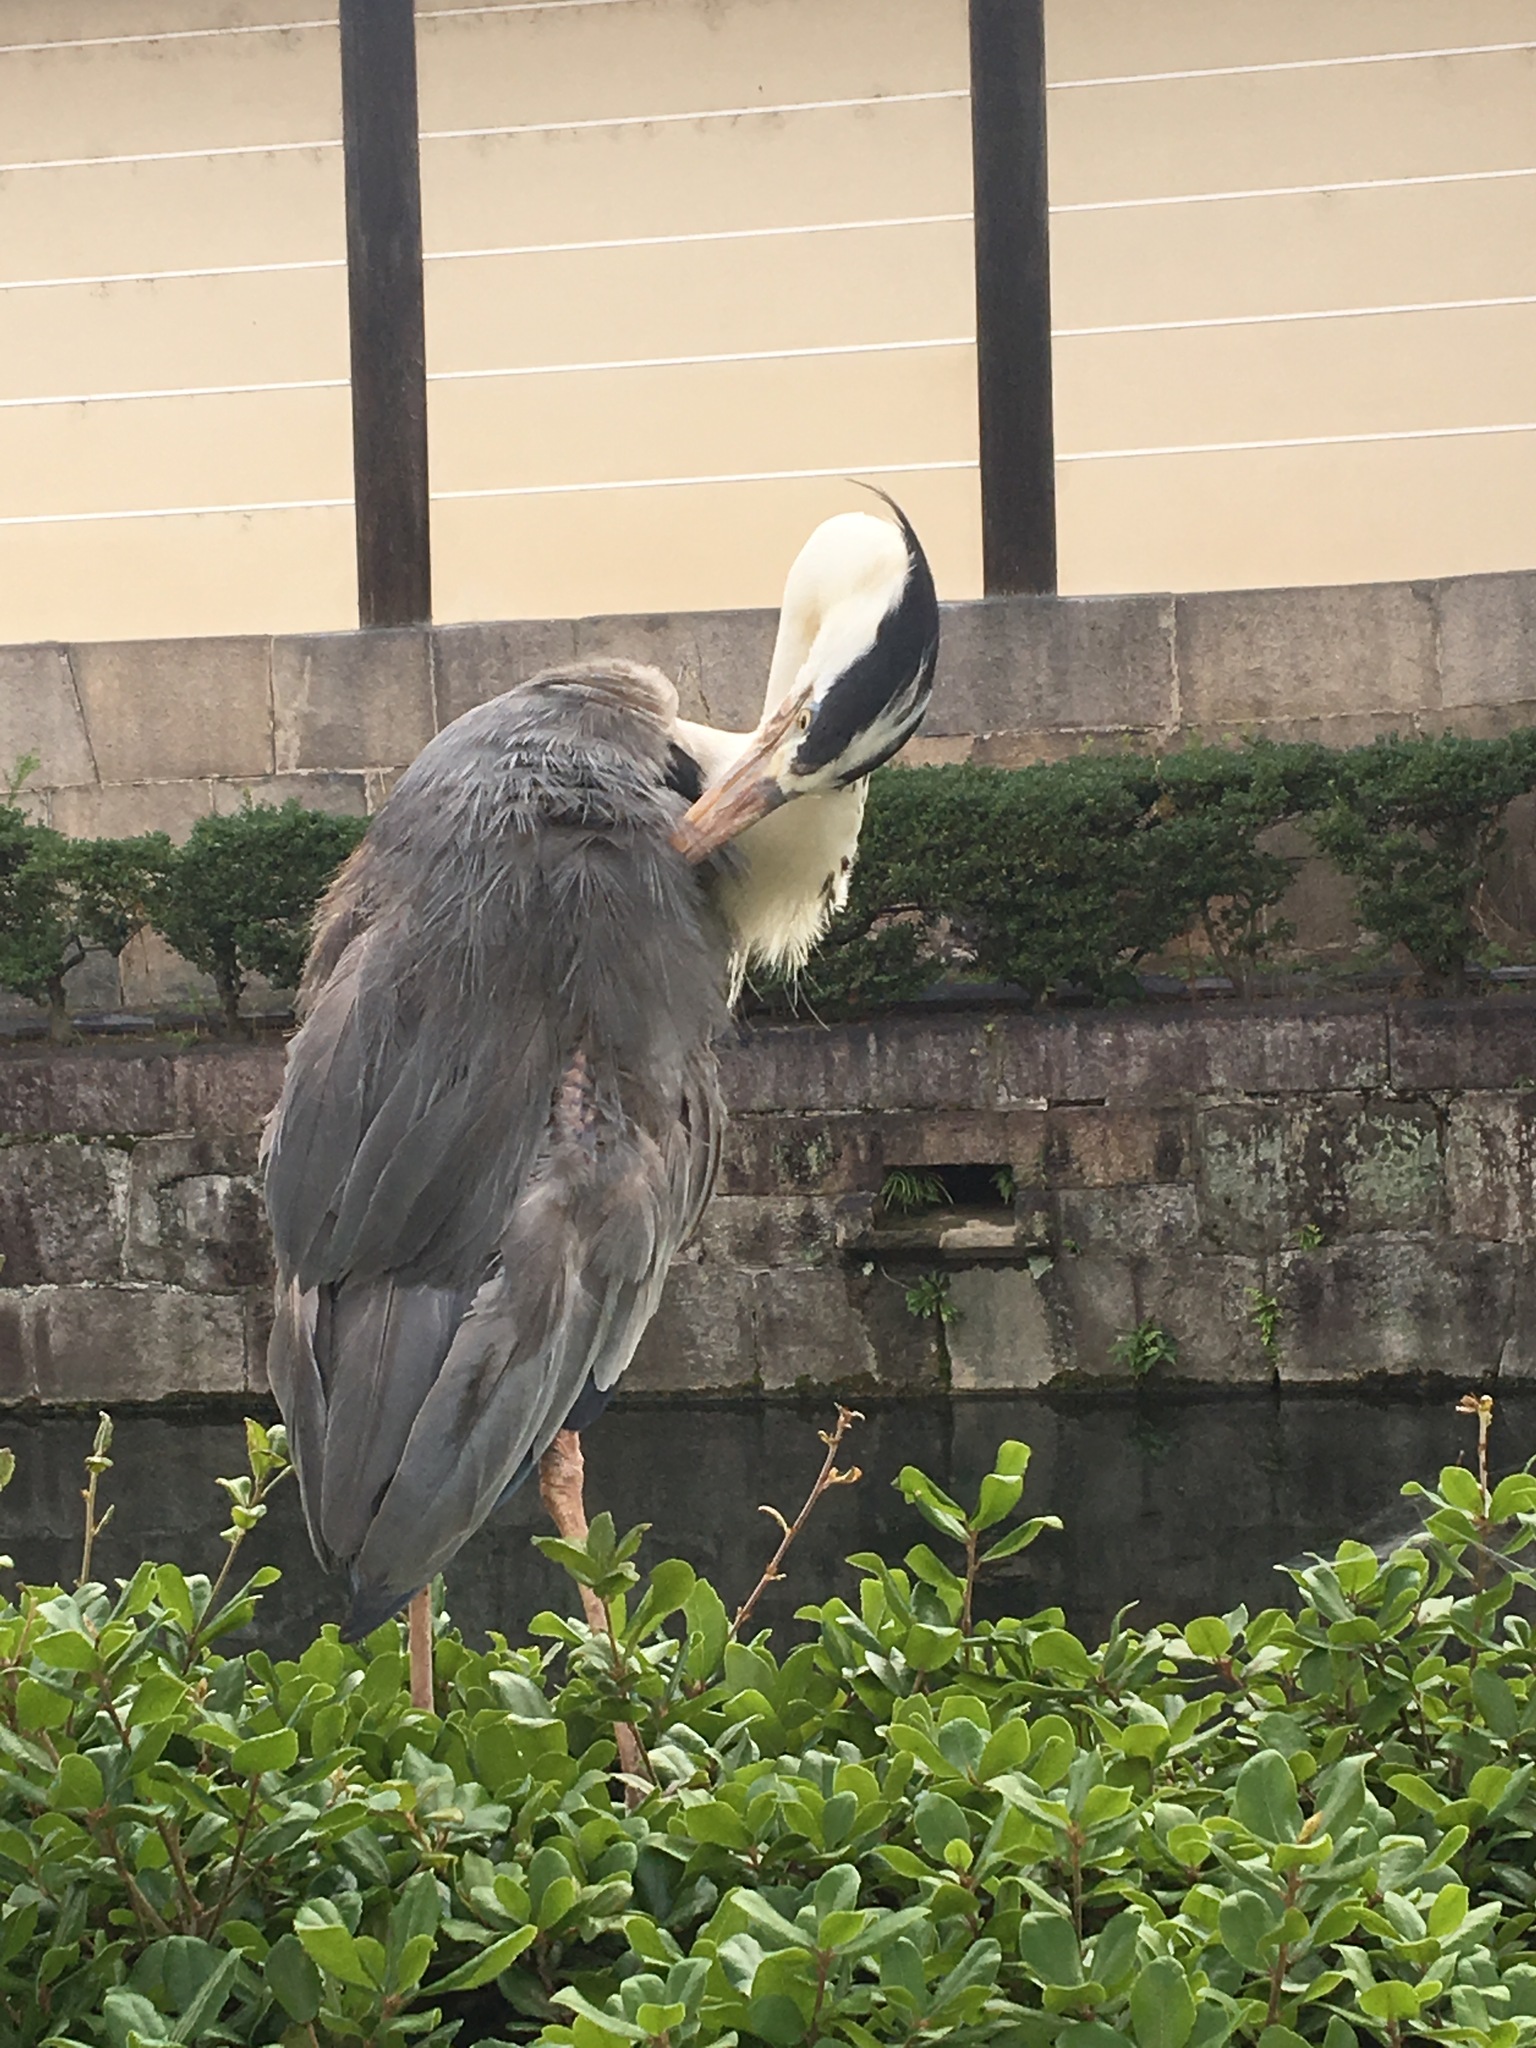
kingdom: Animalia
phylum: Chordata
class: Aves
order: Pelecaniformes
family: Ardeidae
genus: Ardea
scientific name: Ardea cinerea
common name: Grey heron
